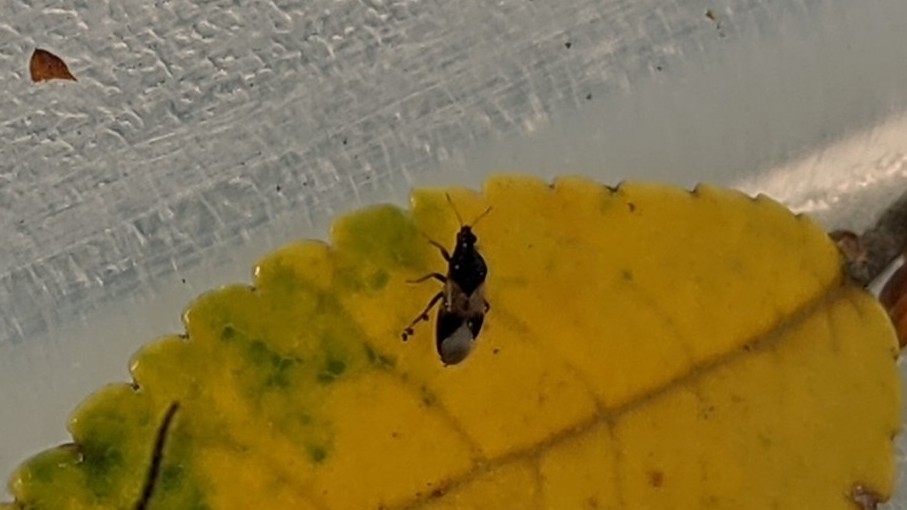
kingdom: Animalia
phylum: Arthropoda
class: Insecta
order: Hemiptera
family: Anthocoridae
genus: Orius
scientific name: Orius insidiosus
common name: Insidious flower bug
